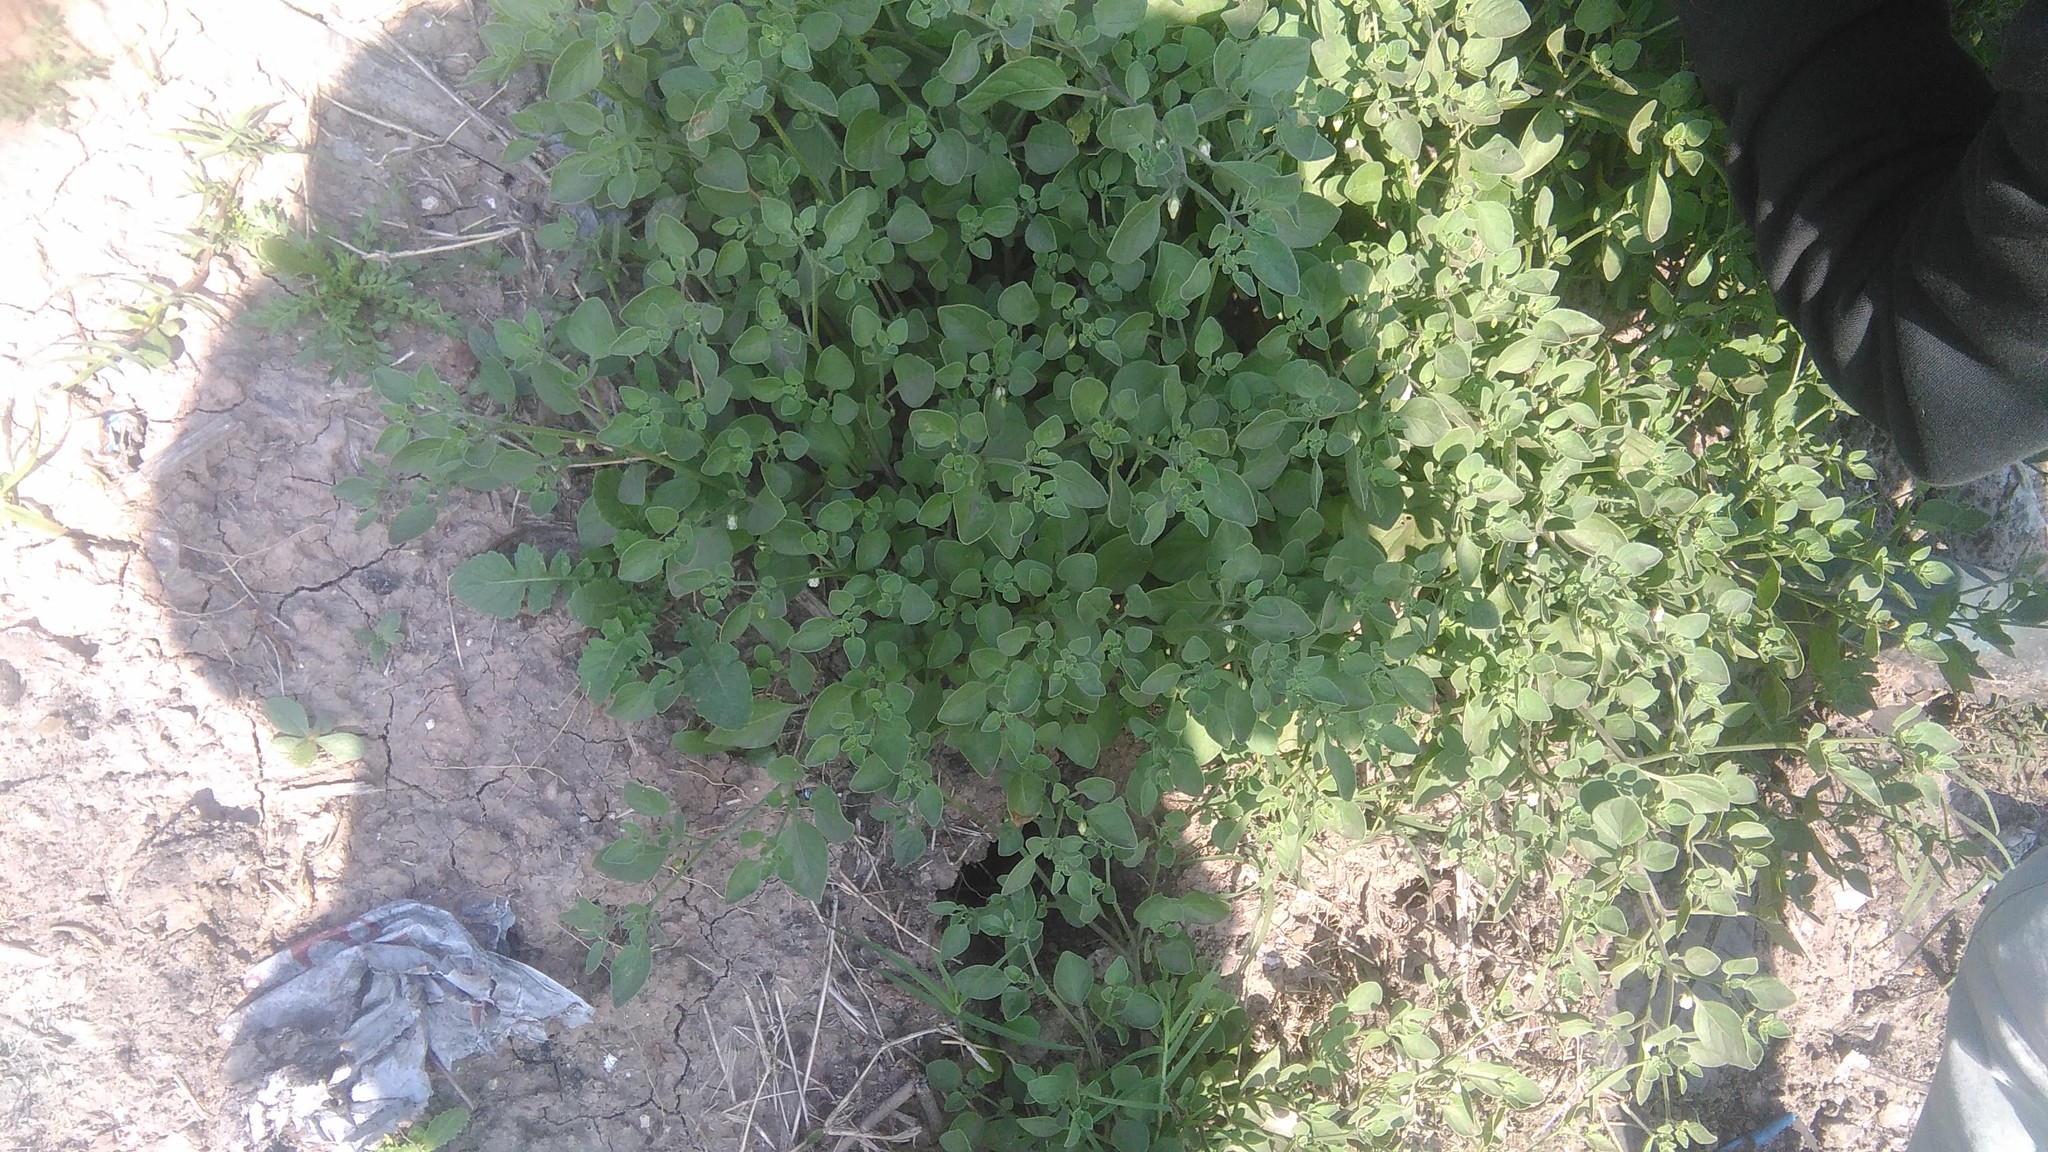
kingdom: Plantae
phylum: Tracheophyta
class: Magnoliopsida
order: Solanales
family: Solanaceae
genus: Salpichroa
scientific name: Salpichroa origanifolia
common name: Lily-of-the-valley-vine
